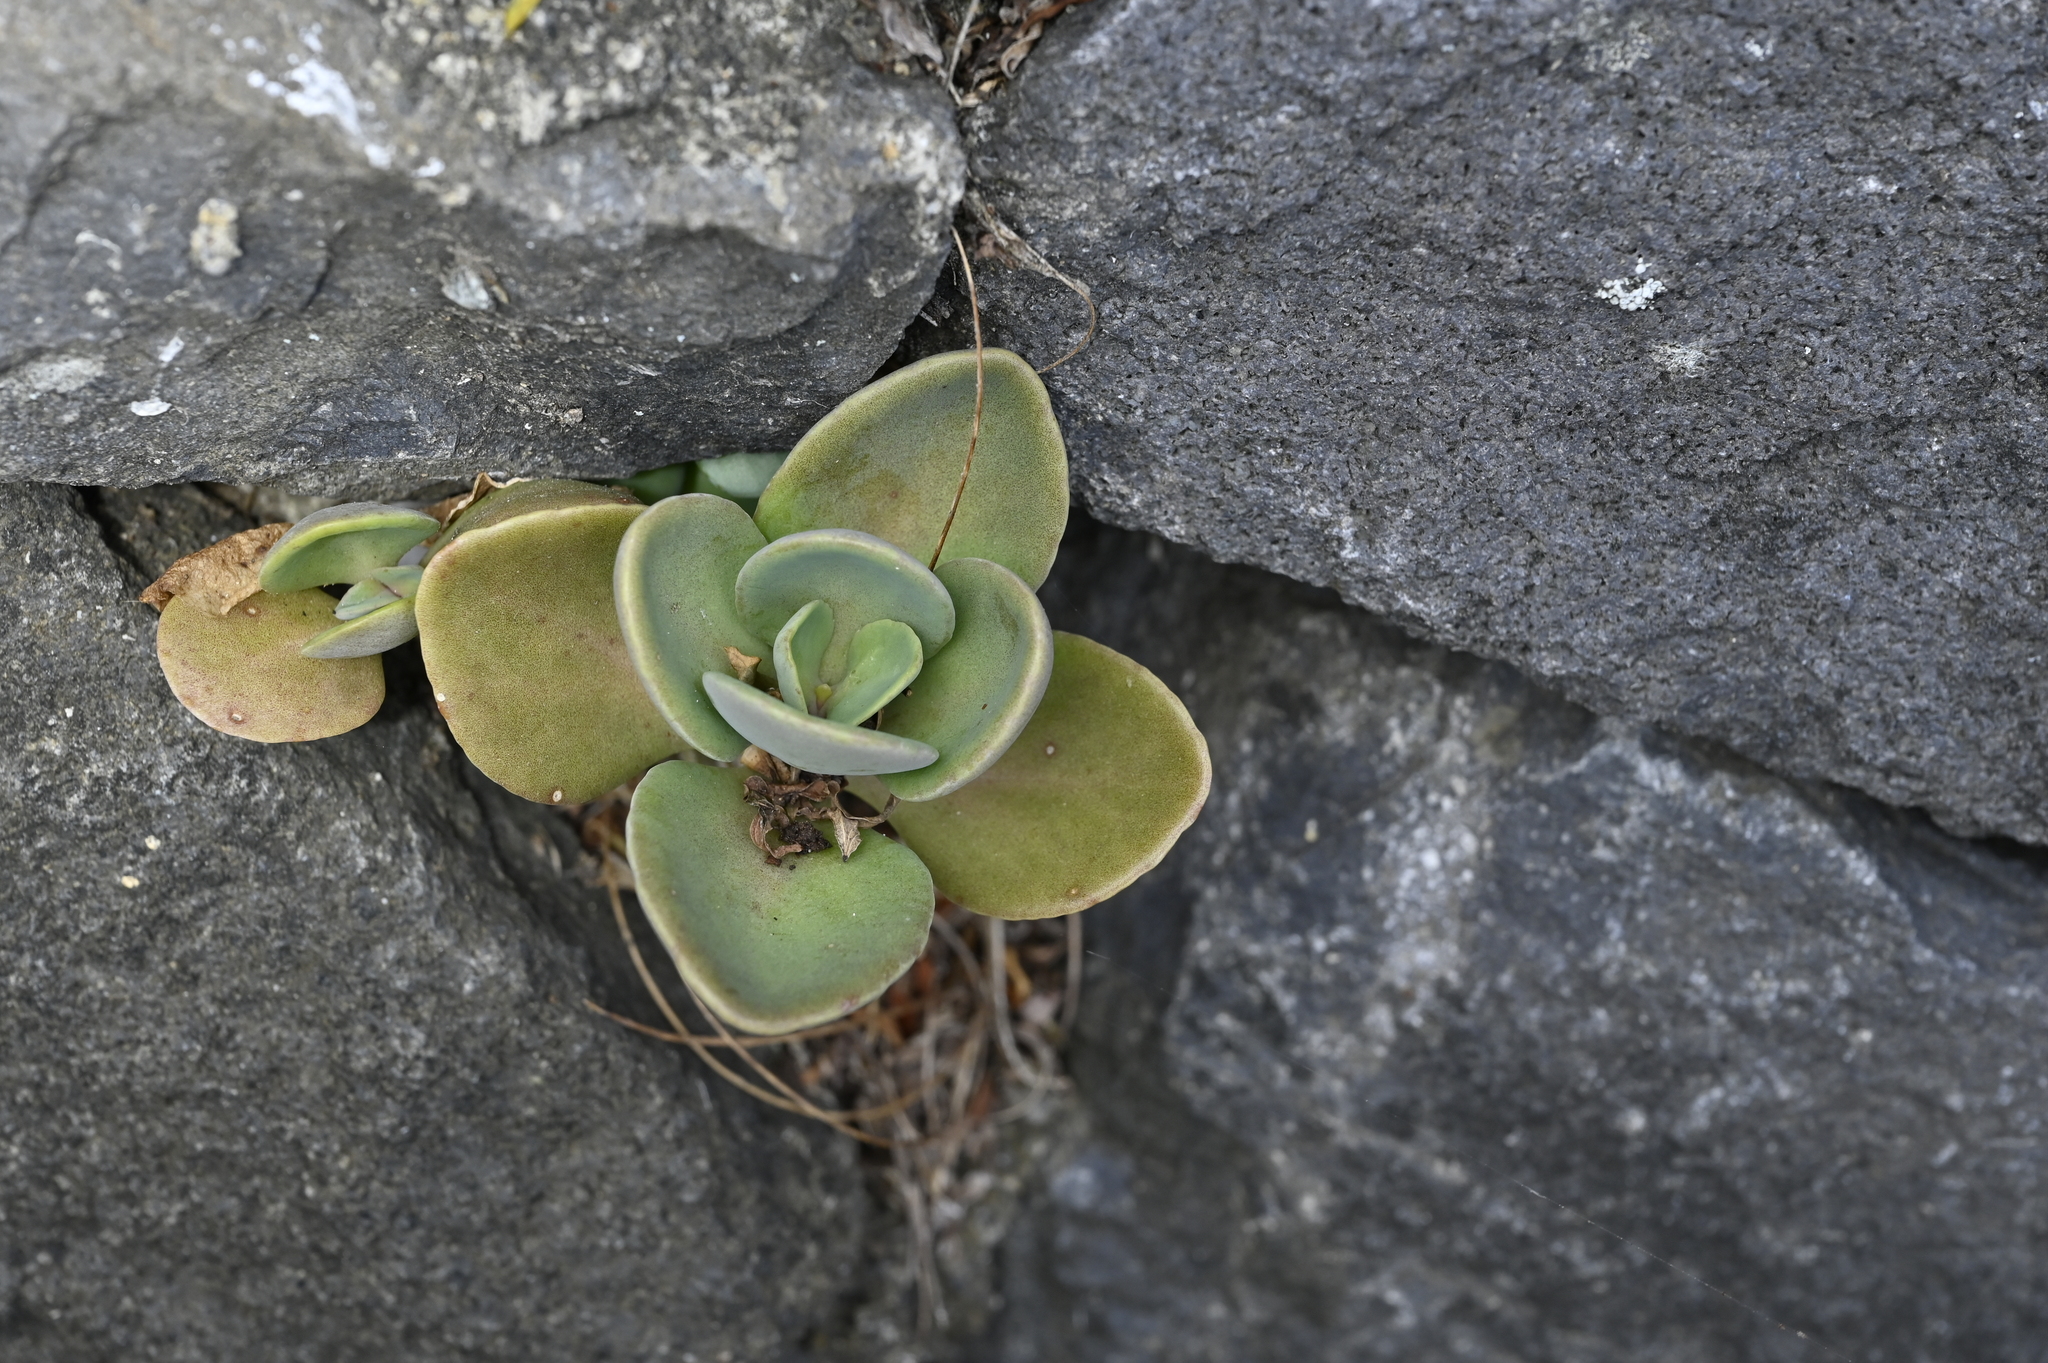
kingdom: Plantae
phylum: Tracheophyta
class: Magnoliopsida
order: Saxifragales
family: Crassulaceae
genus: Kalanchoe
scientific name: Kalanchoe tashiroi
